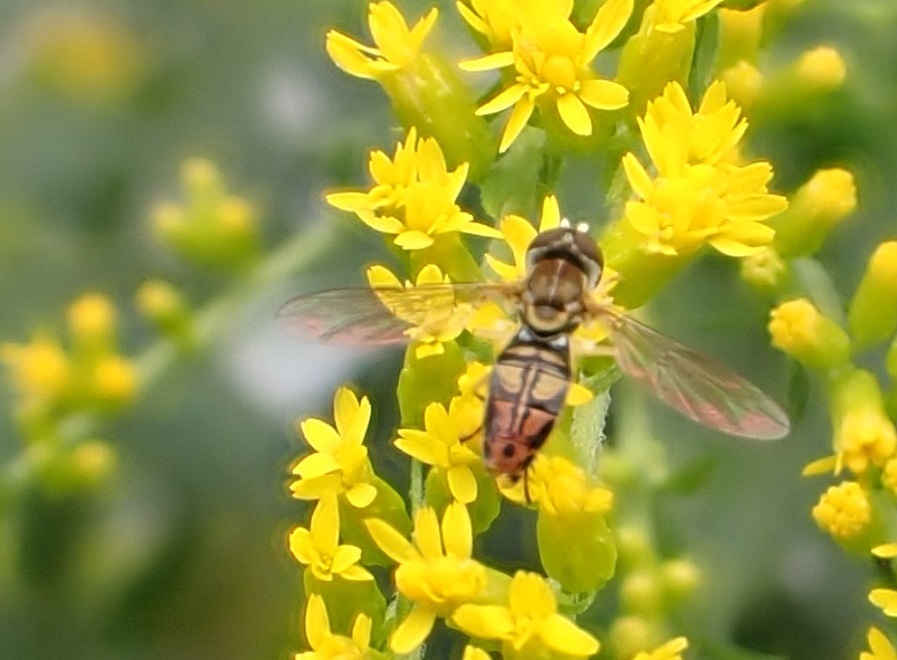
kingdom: Animalia
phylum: Arthropoda
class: Insecta
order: Diptera
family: Syrphidae
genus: Toxomerus
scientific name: Toxomerus marginatus
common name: Syrphid fly
